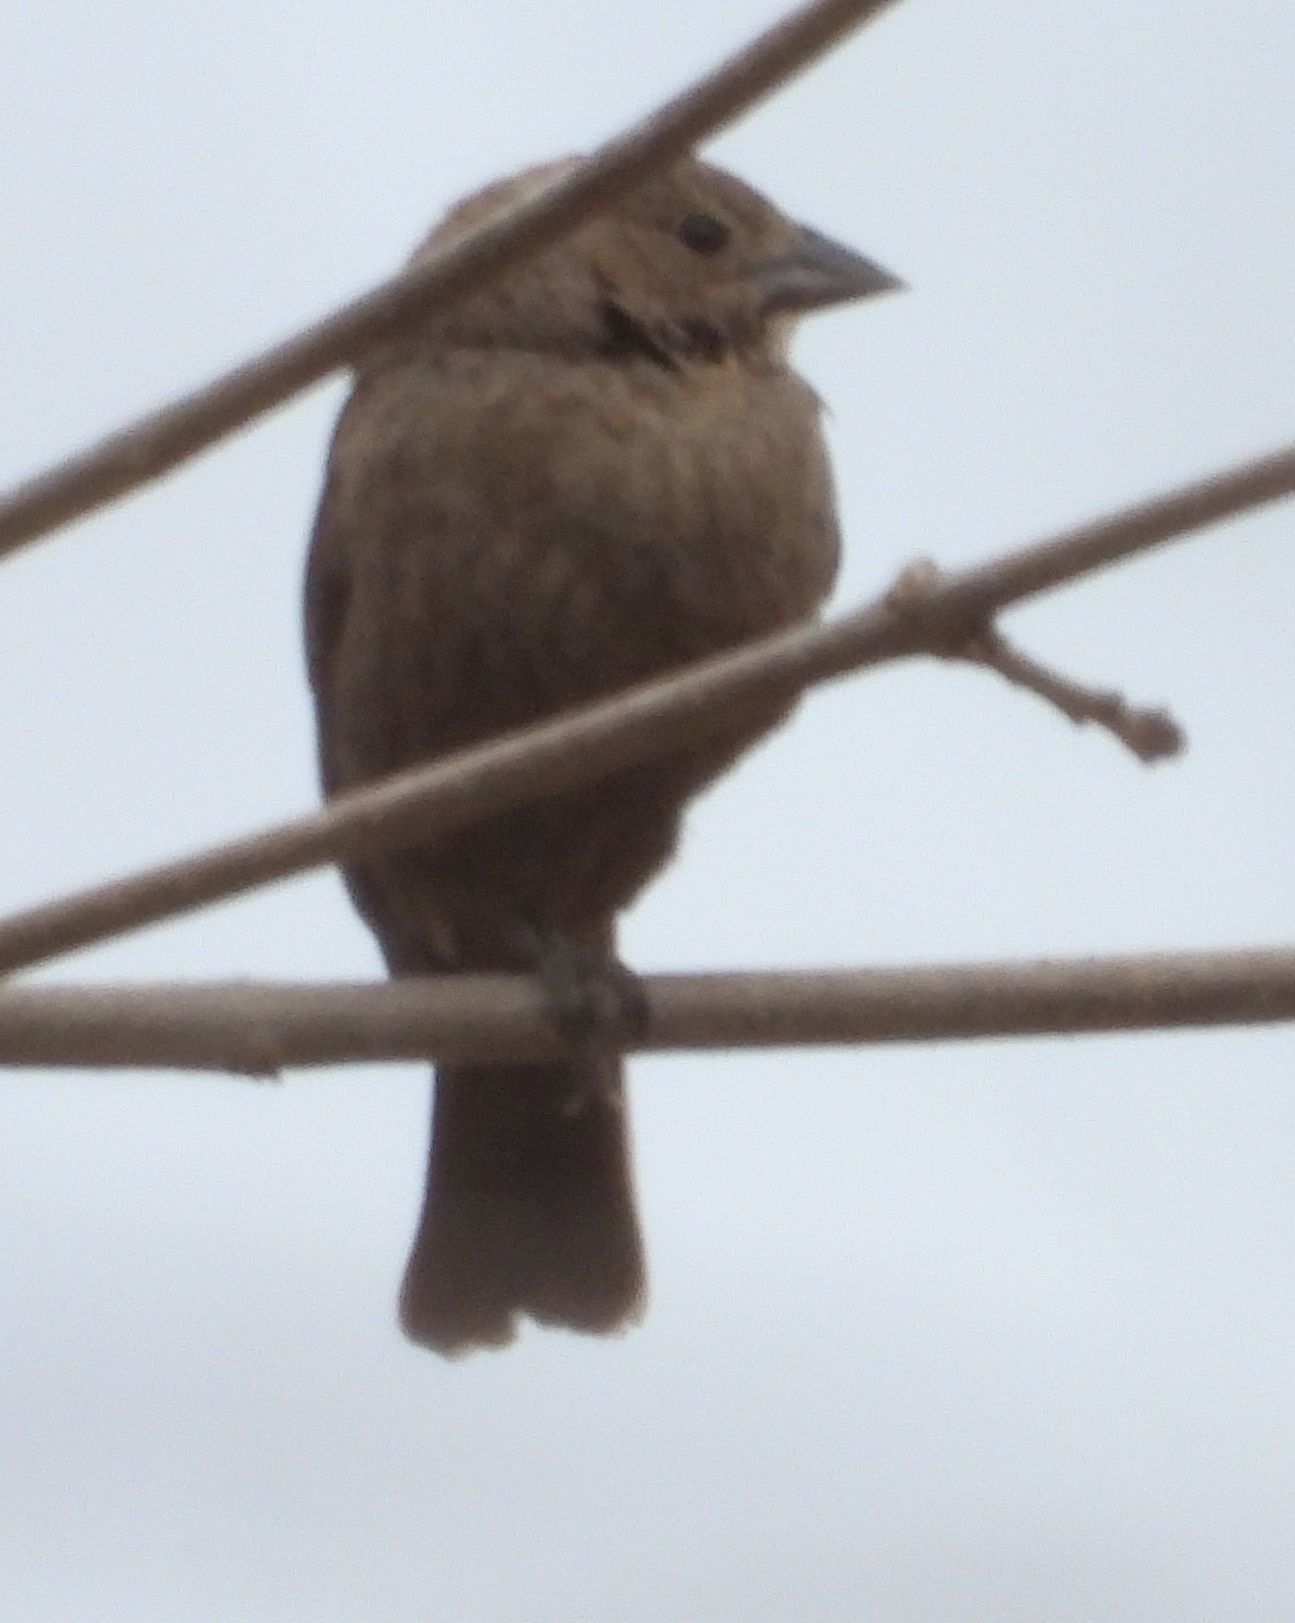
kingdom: Animalia
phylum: Chordata
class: Aves
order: Passeriformes
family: Icteridae
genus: Molothrus
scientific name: Molothrus ater
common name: Brown-headed cowbird
